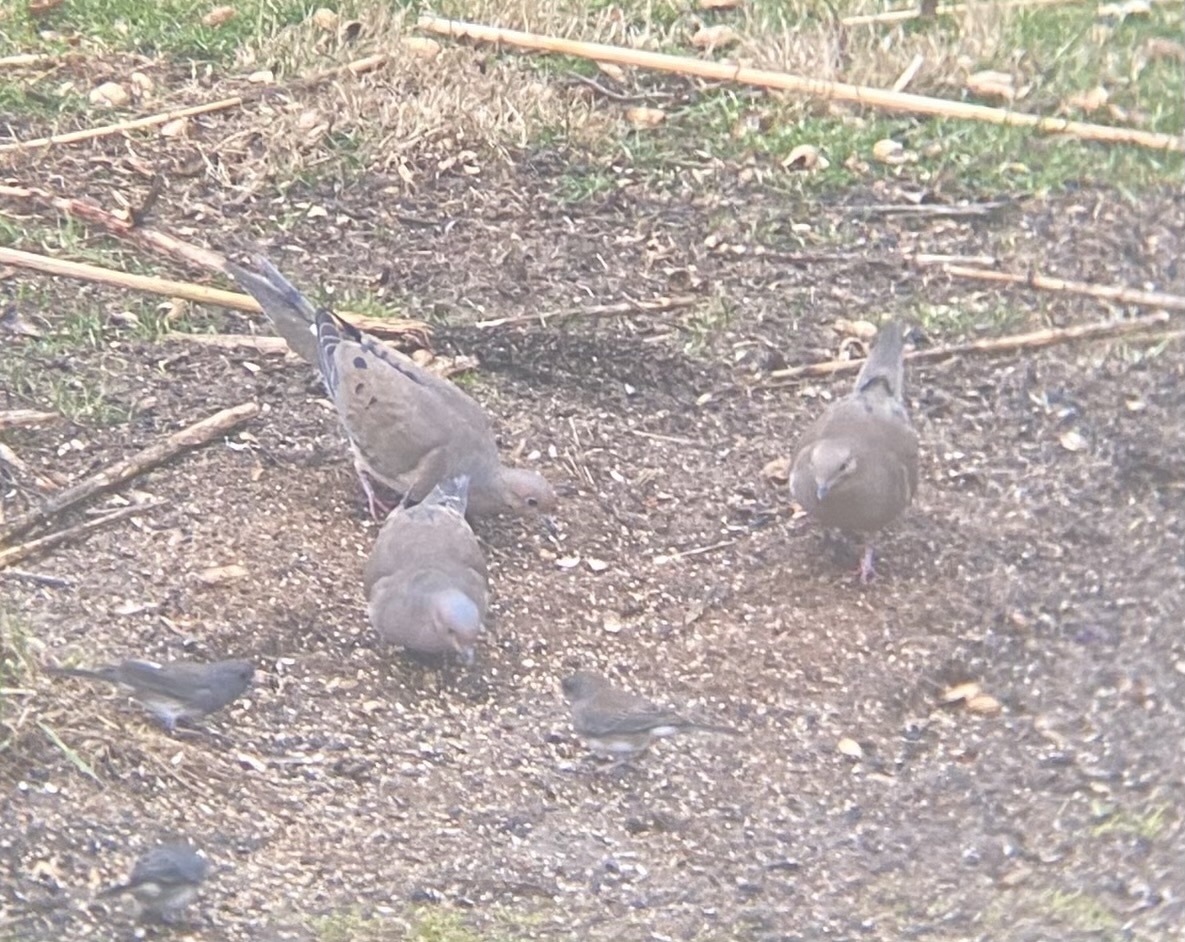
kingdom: Animalia
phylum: Chordata
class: Aves
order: Columbiformes
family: Columbidae
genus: Zenaida
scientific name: Zenaida macroura
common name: Mourning dove
